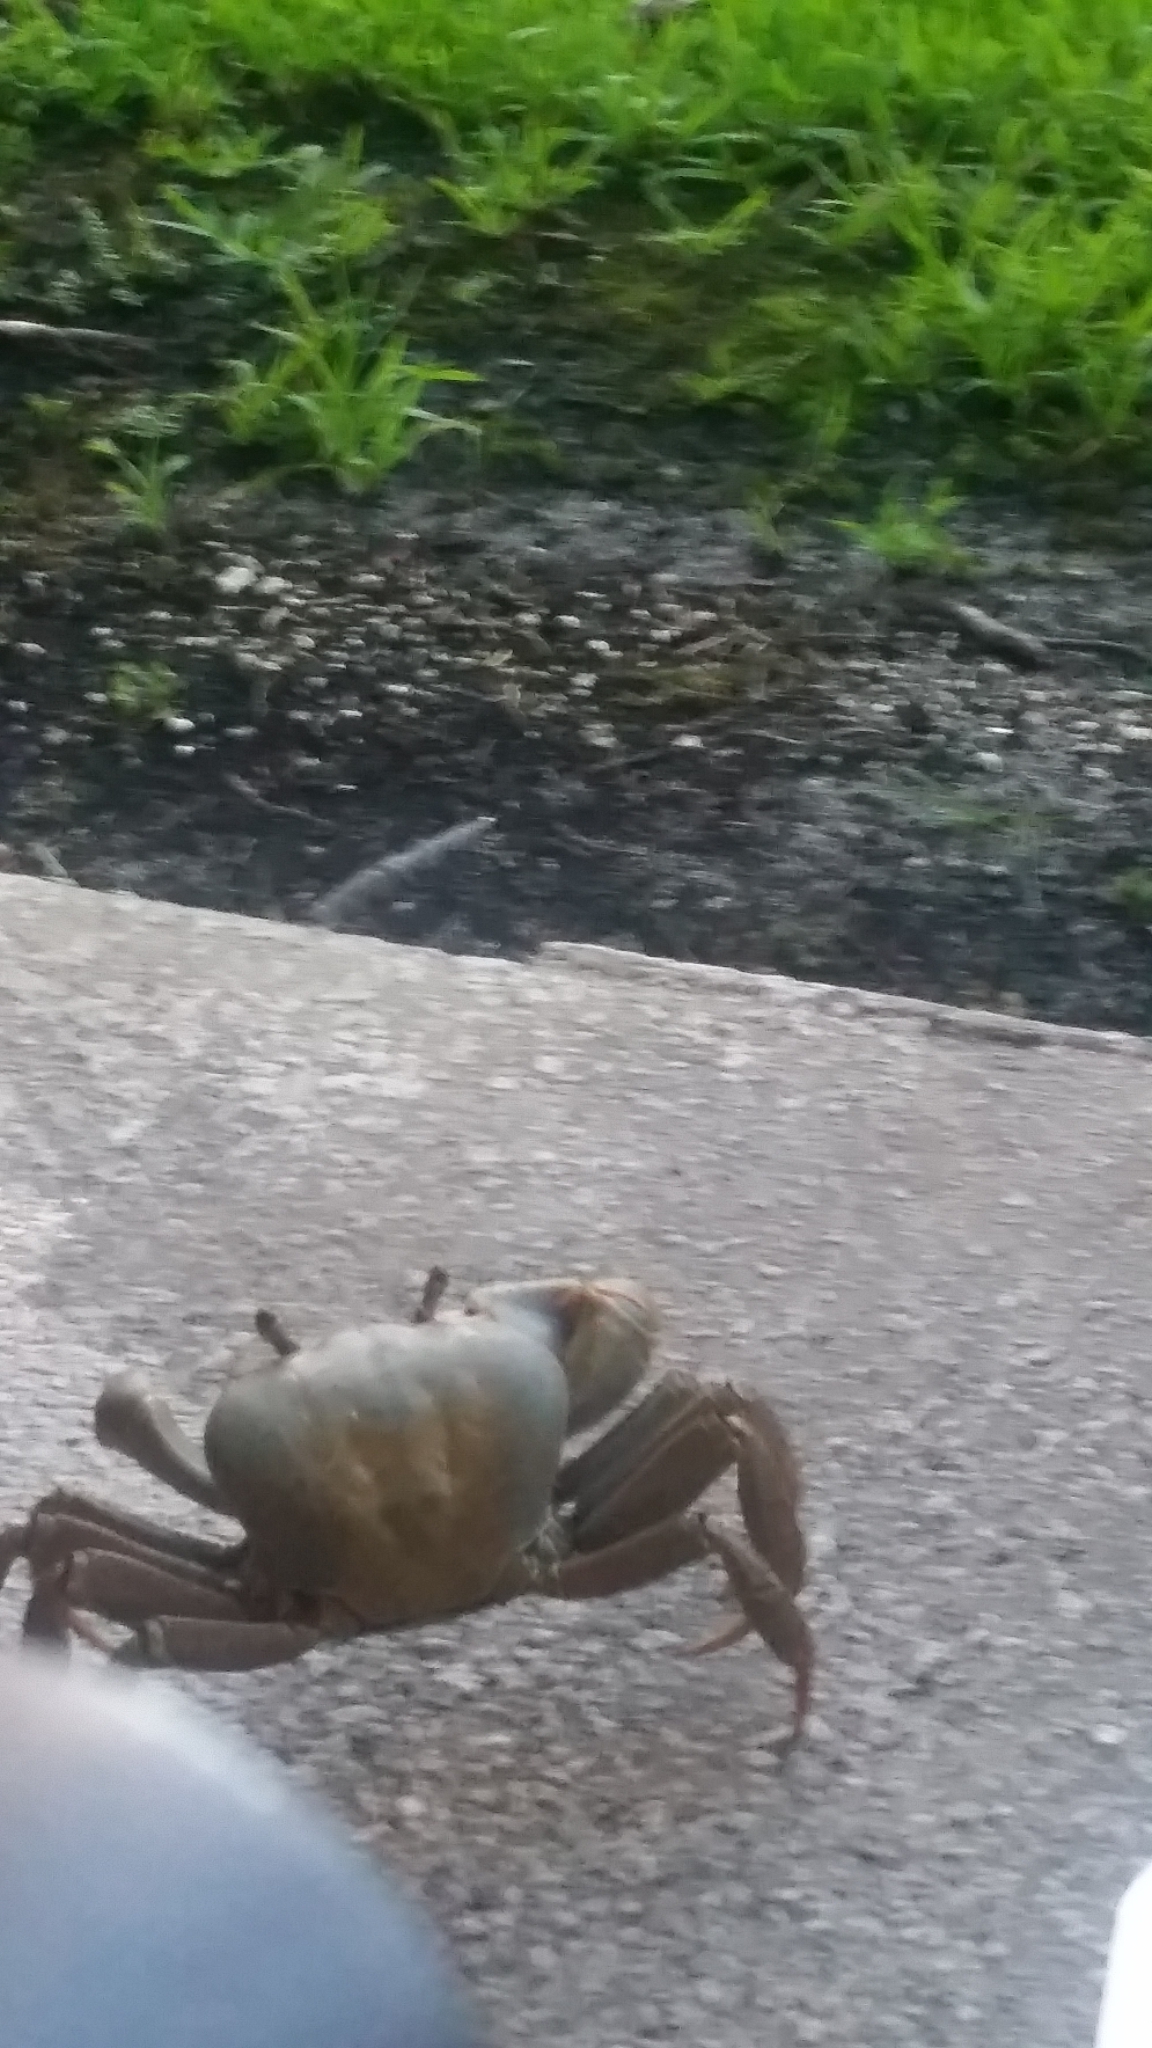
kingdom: Animalia
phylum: Arthropoda
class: Malacostraca
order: Decapoda
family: Gecarcinidae
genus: Cardisoma
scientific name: Cardisoma guanhumi
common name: Great land crab
